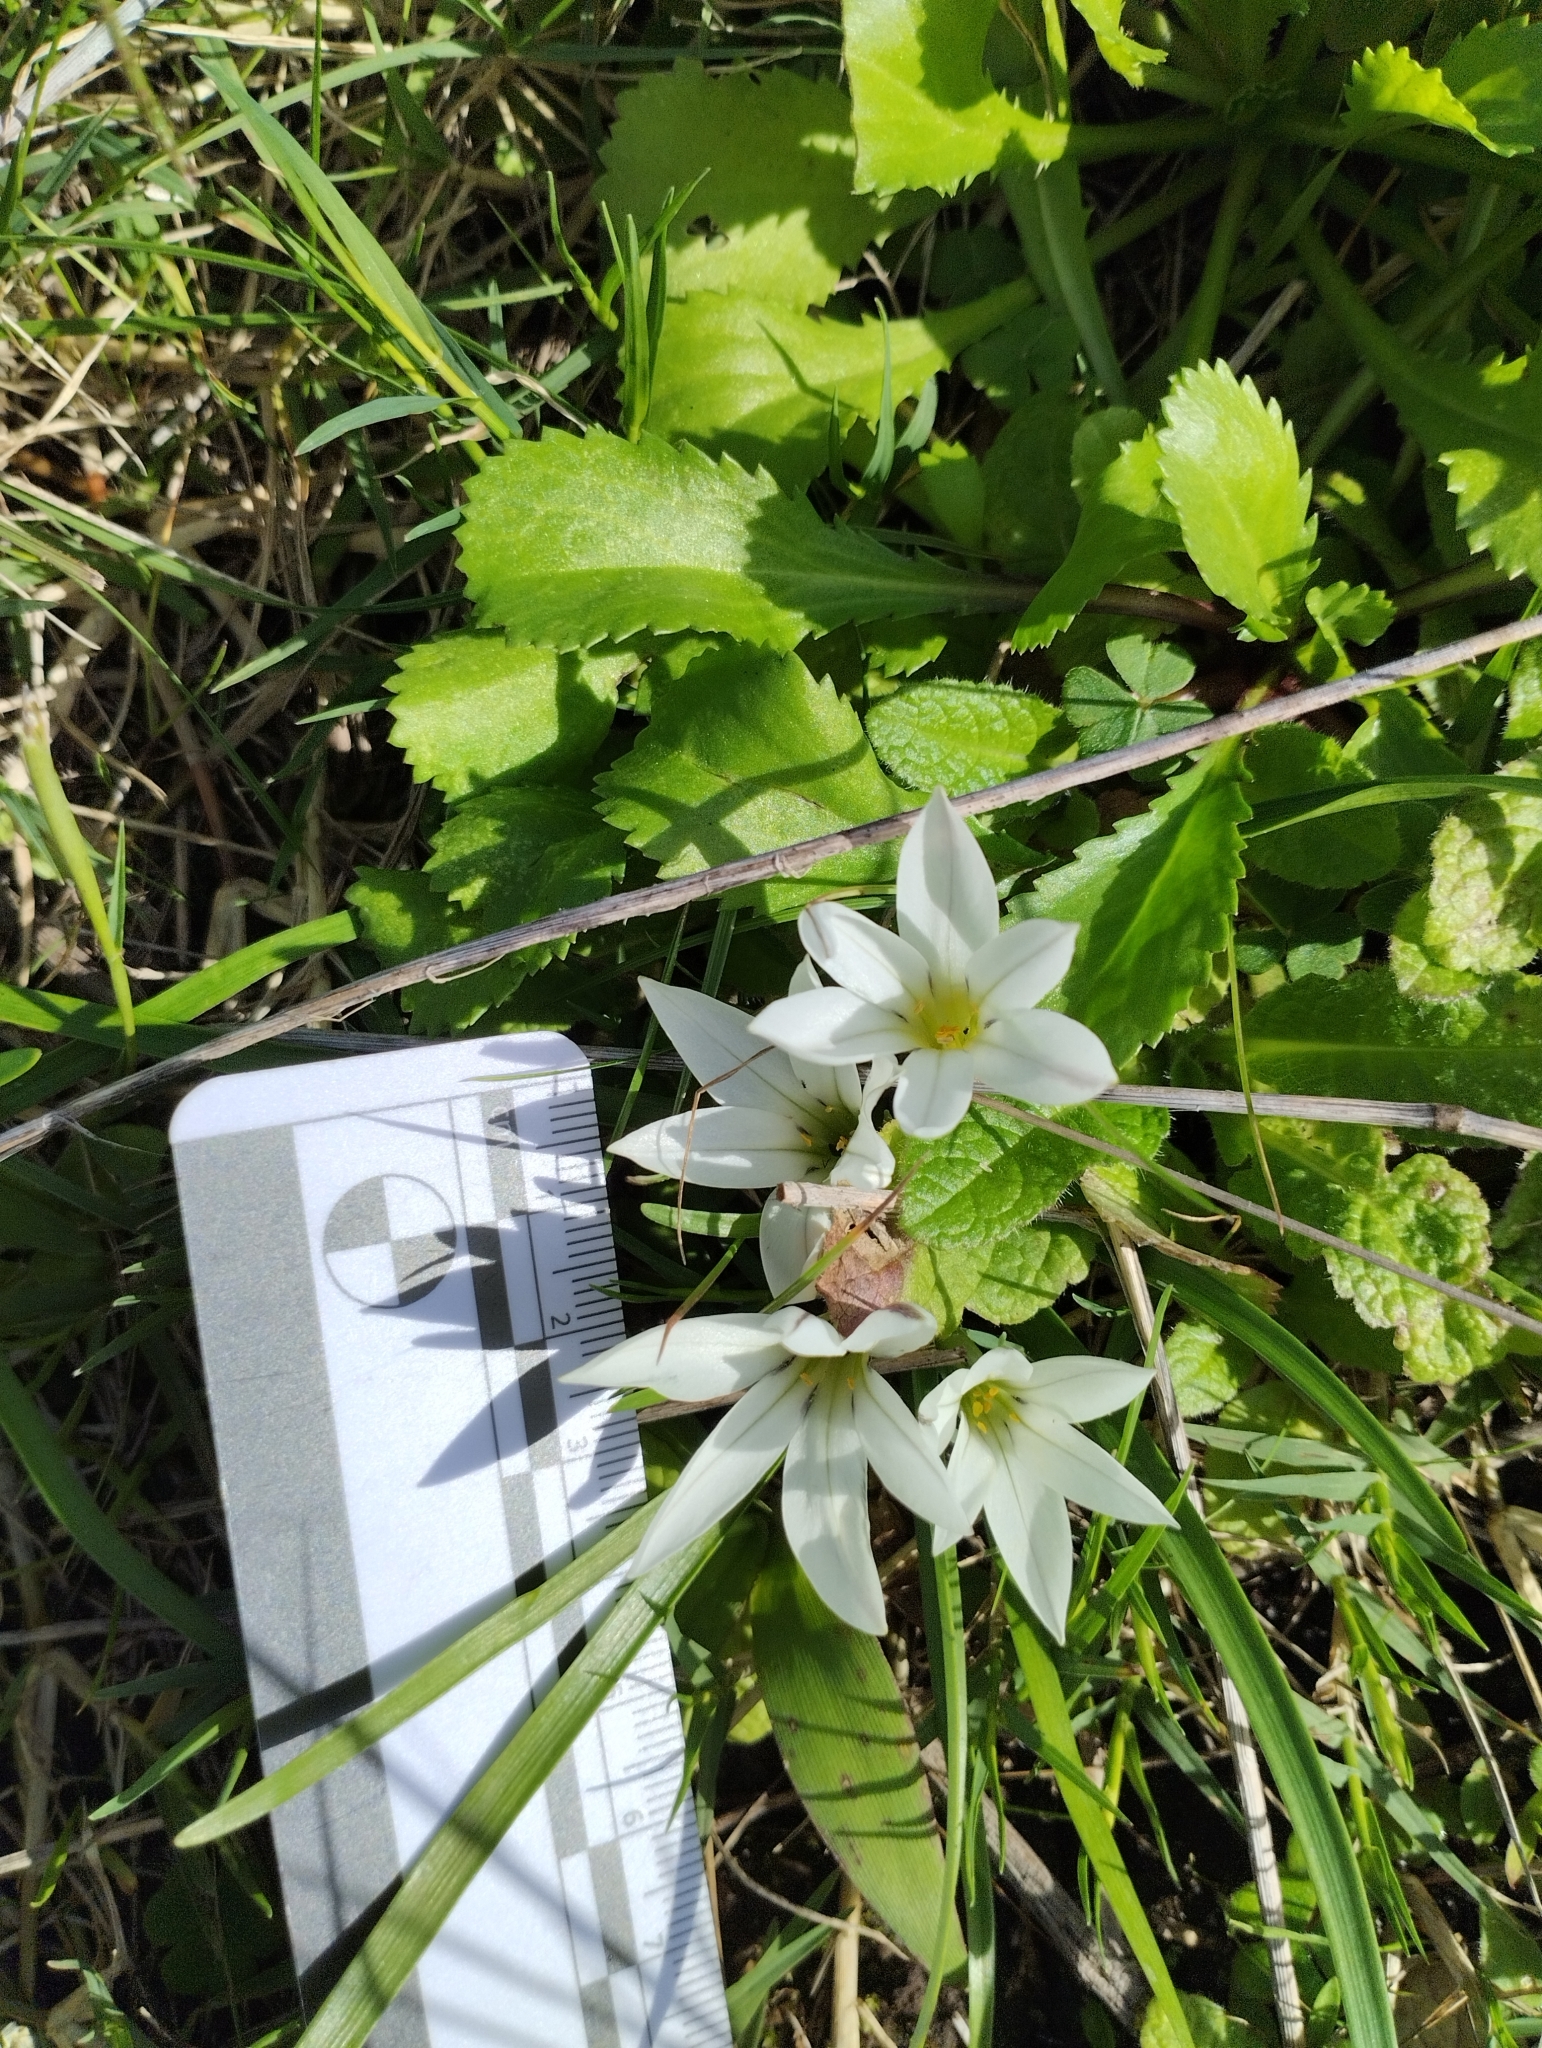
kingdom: Plantae
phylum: Tracheophyta
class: Liliopsida
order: Asparagales
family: Amaryllidaceae
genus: Ipheion
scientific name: Ipheion recurvifolium
